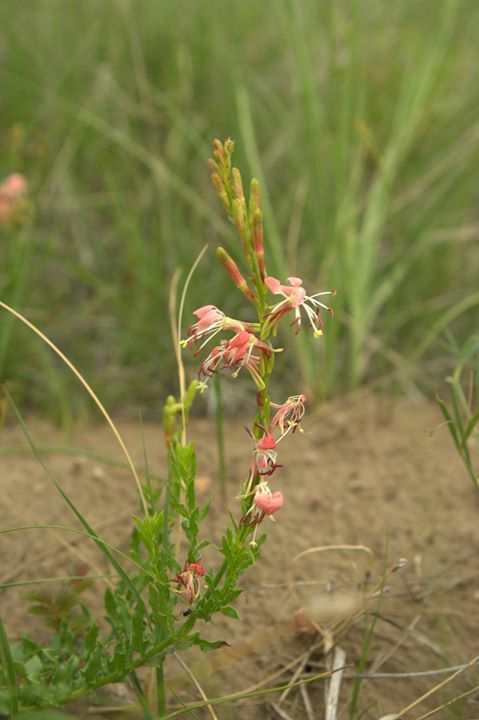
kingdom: Plantae
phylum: Tracheophyta
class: Magnoliopsida
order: Myrtales
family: Onagraceae
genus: Oenothera
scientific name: Oenothera suffrutescens
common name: Scarlet beeblossom
